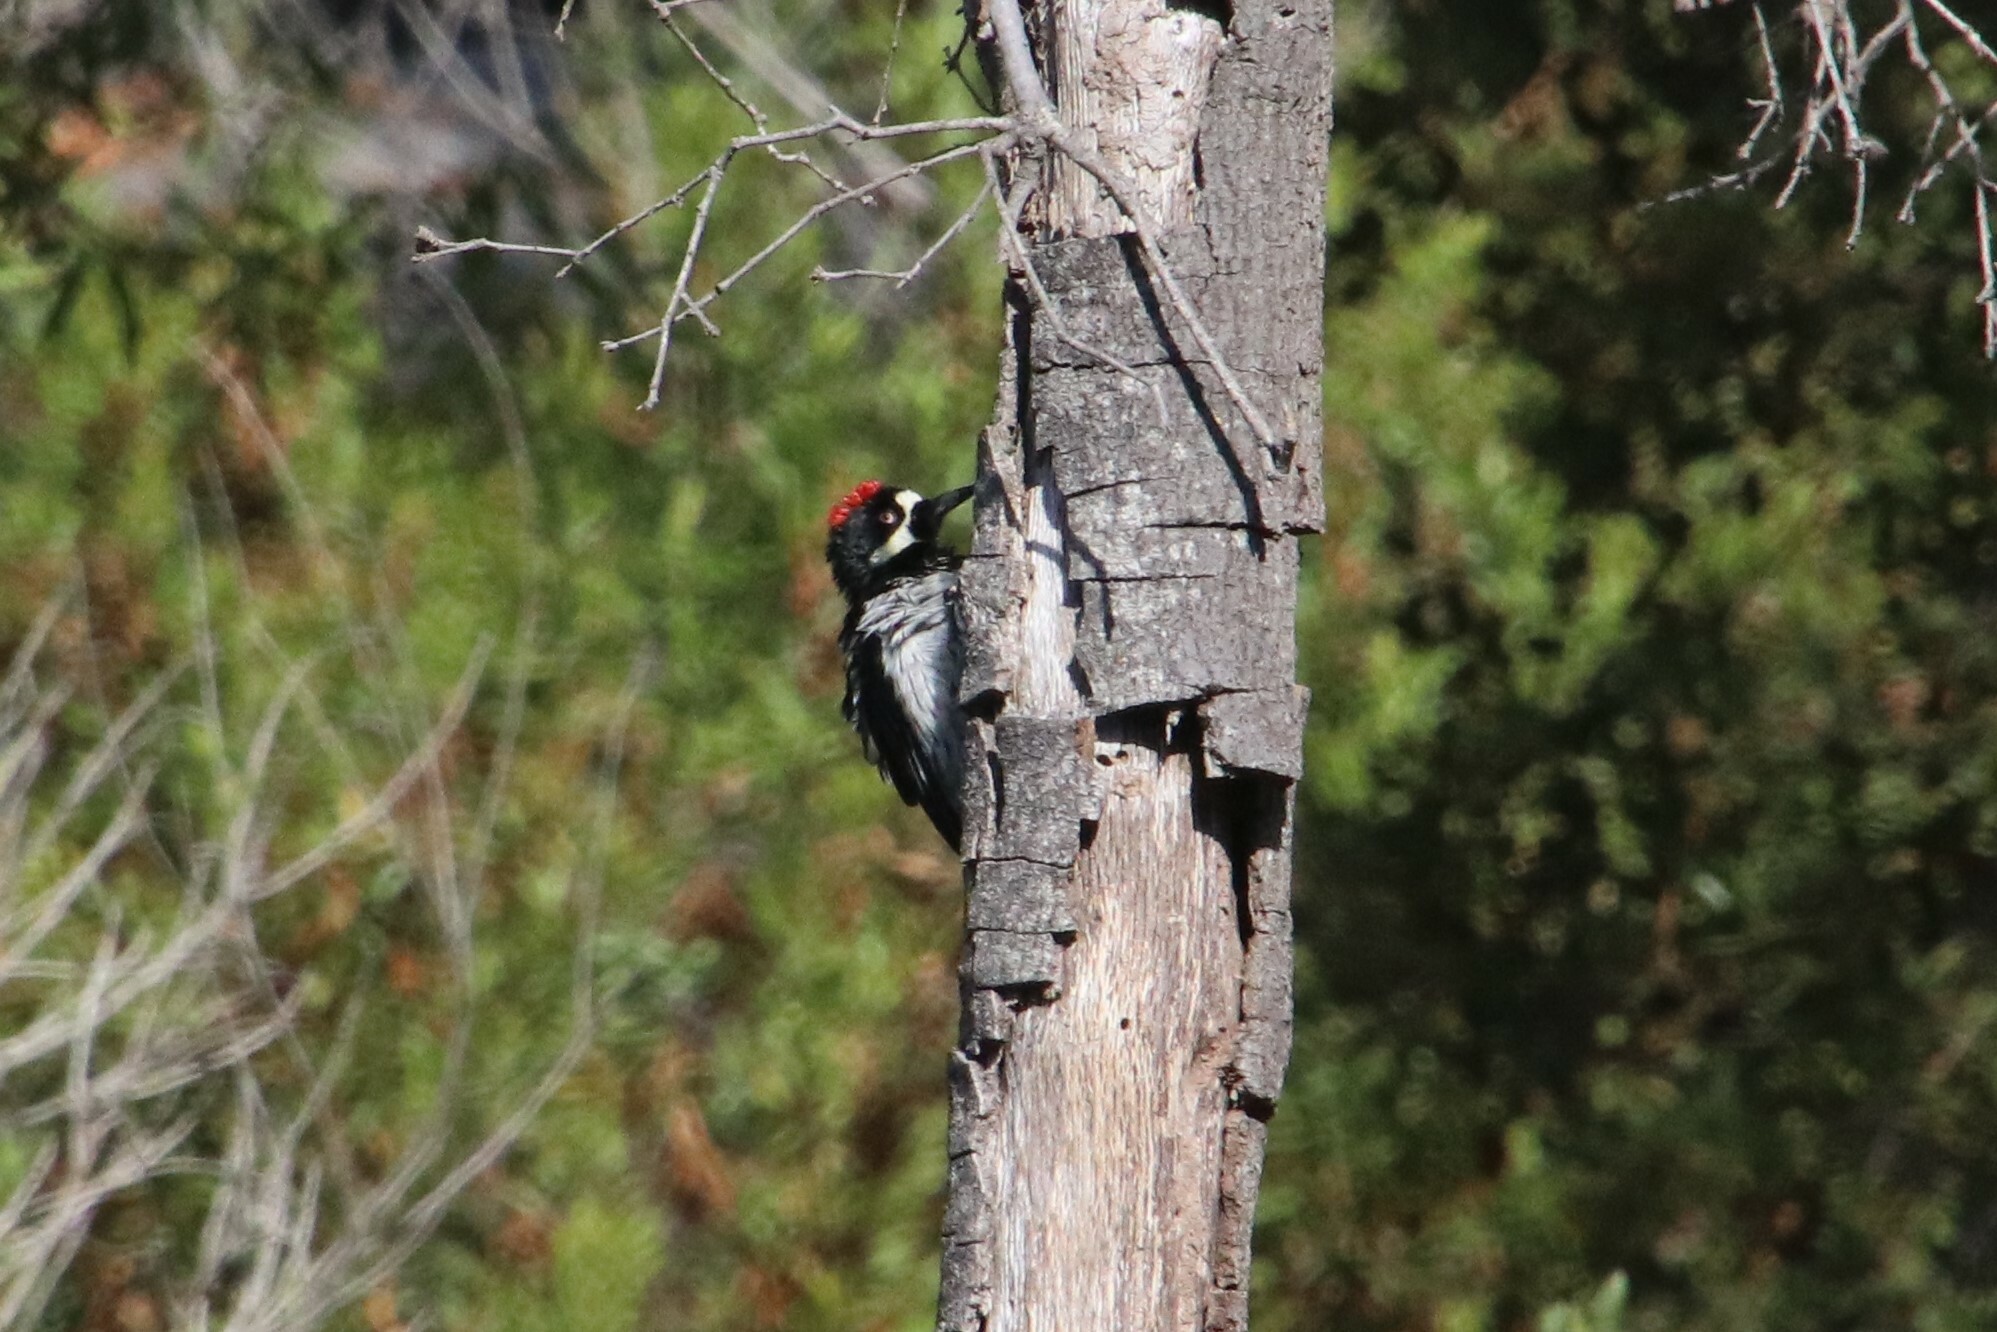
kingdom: Animalia
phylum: Chordata
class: Aves
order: Piciformes
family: Picidae
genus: Melanerpes
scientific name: Melanerpes formicivorus
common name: Acorn woodpecker
